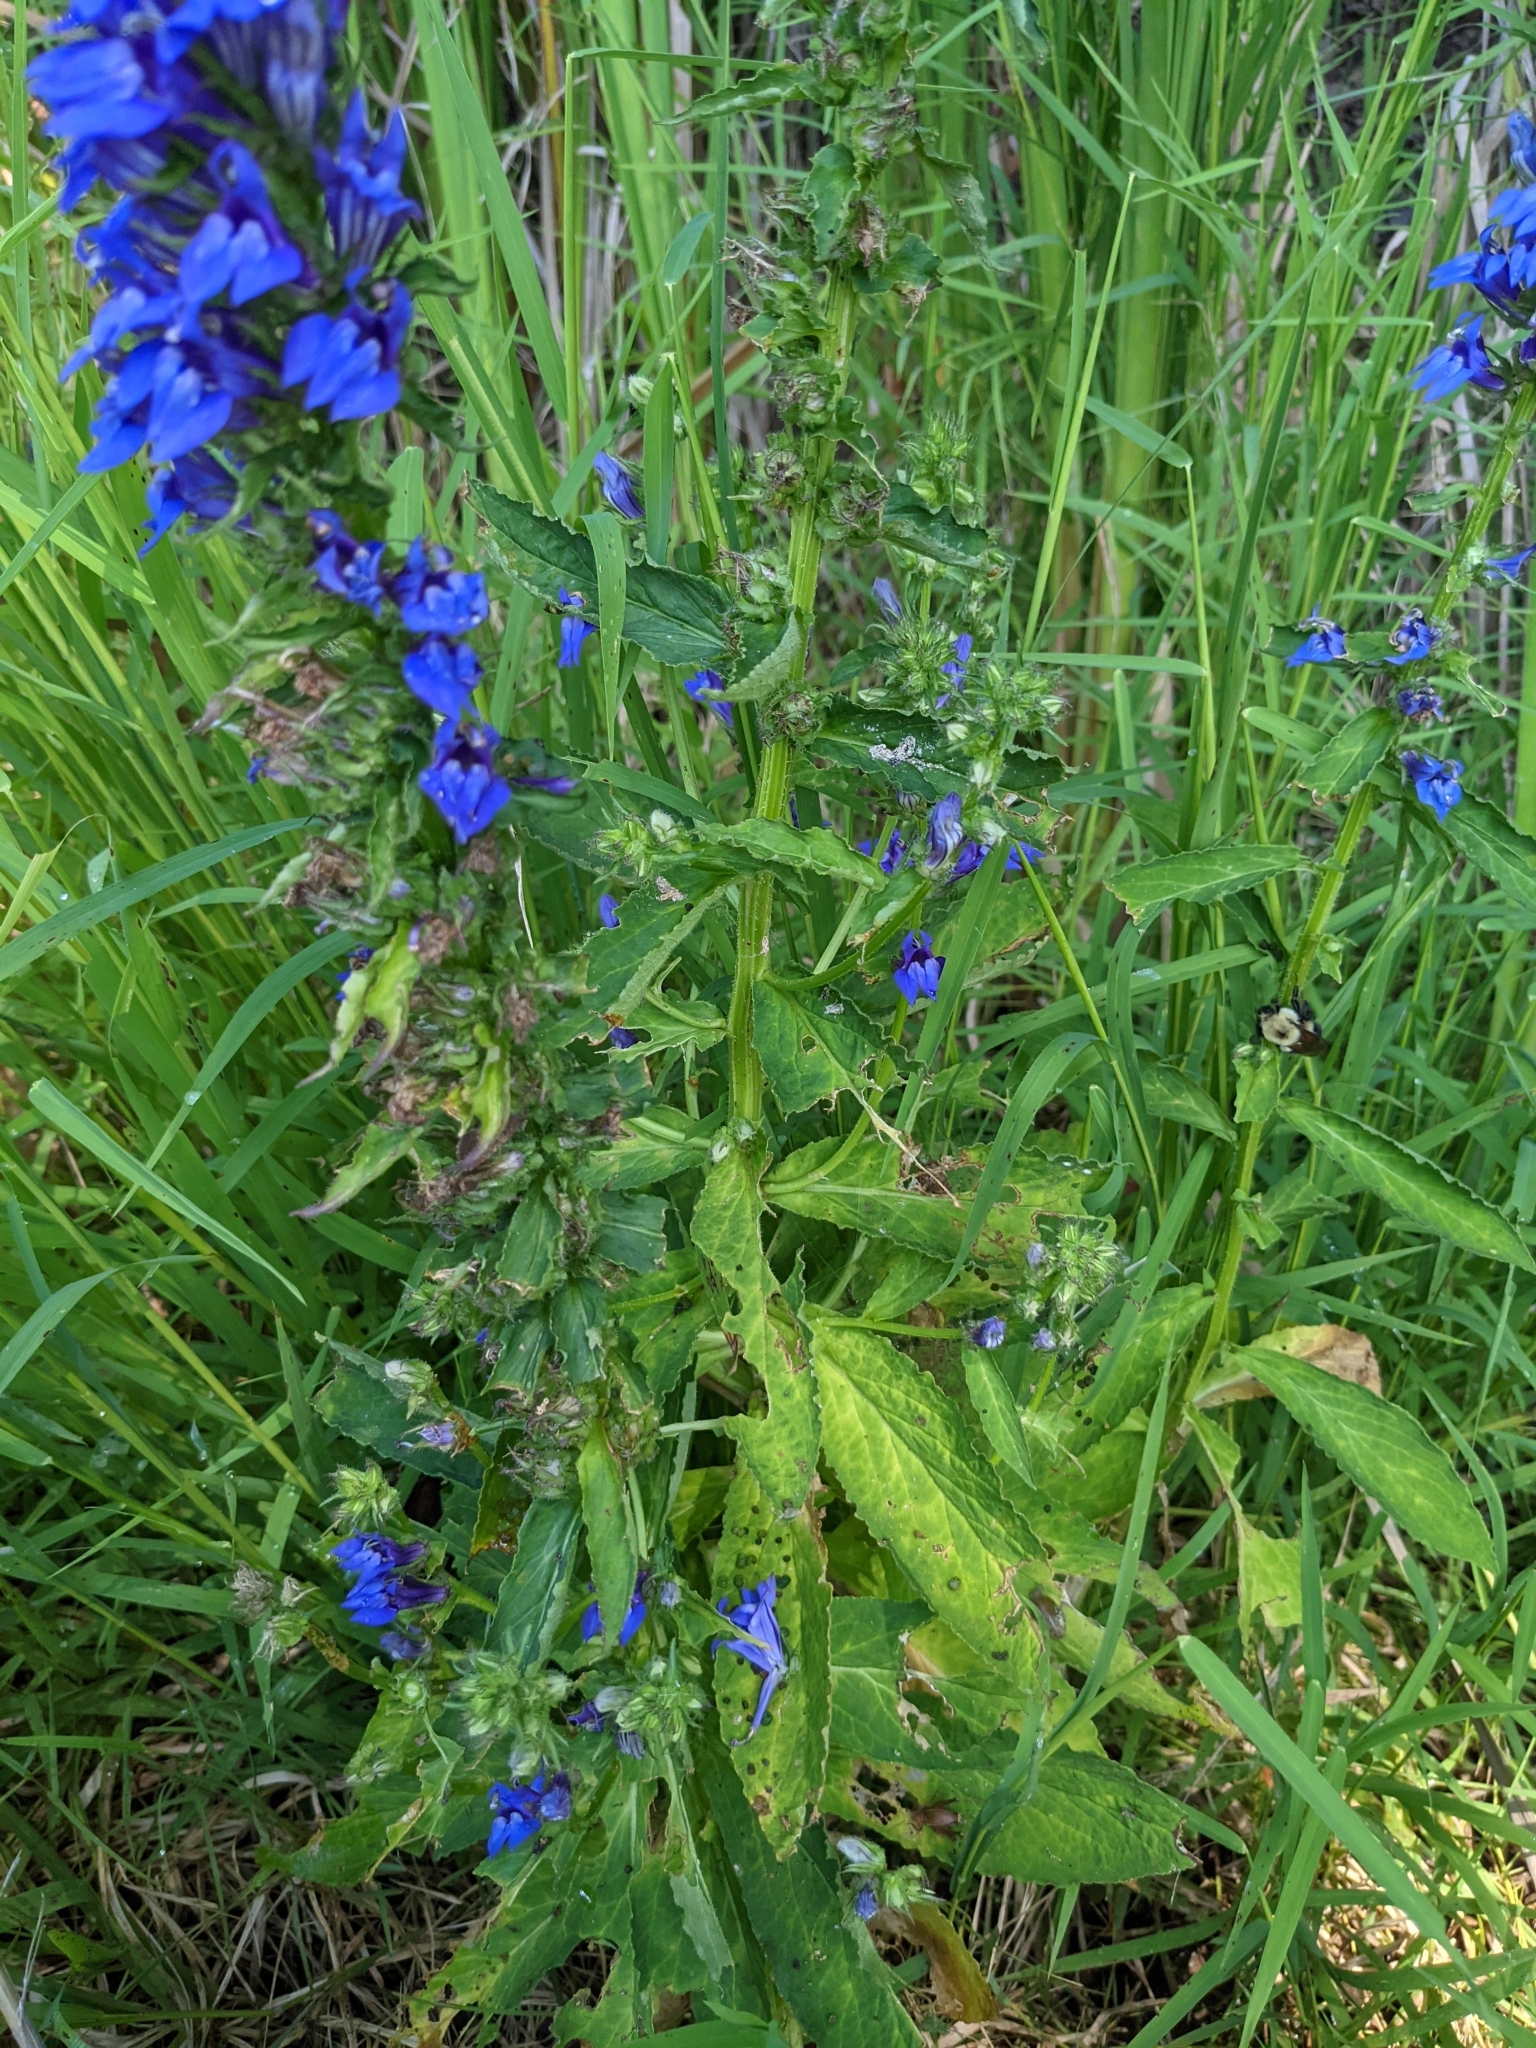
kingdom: Plantae
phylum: Tracheophyta
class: Magnoliopsida
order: Asterales
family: Campanulaceae
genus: Lobelia
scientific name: Lobelia siphilitica
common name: Great lobelia
